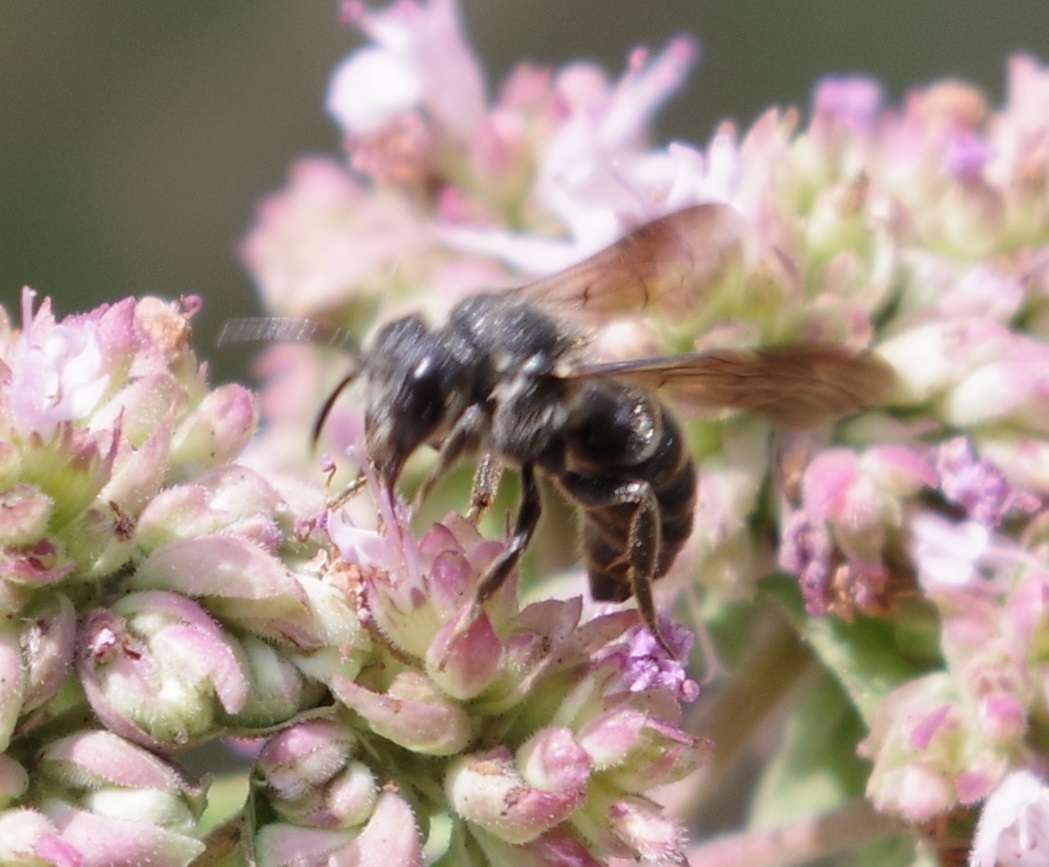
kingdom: Animalia
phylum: Arthropoda
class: Insecta
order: Hymenoptera
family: Megachilidae
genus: Stelis
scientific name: Stelis punctulatissima
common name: Banded dark bee
